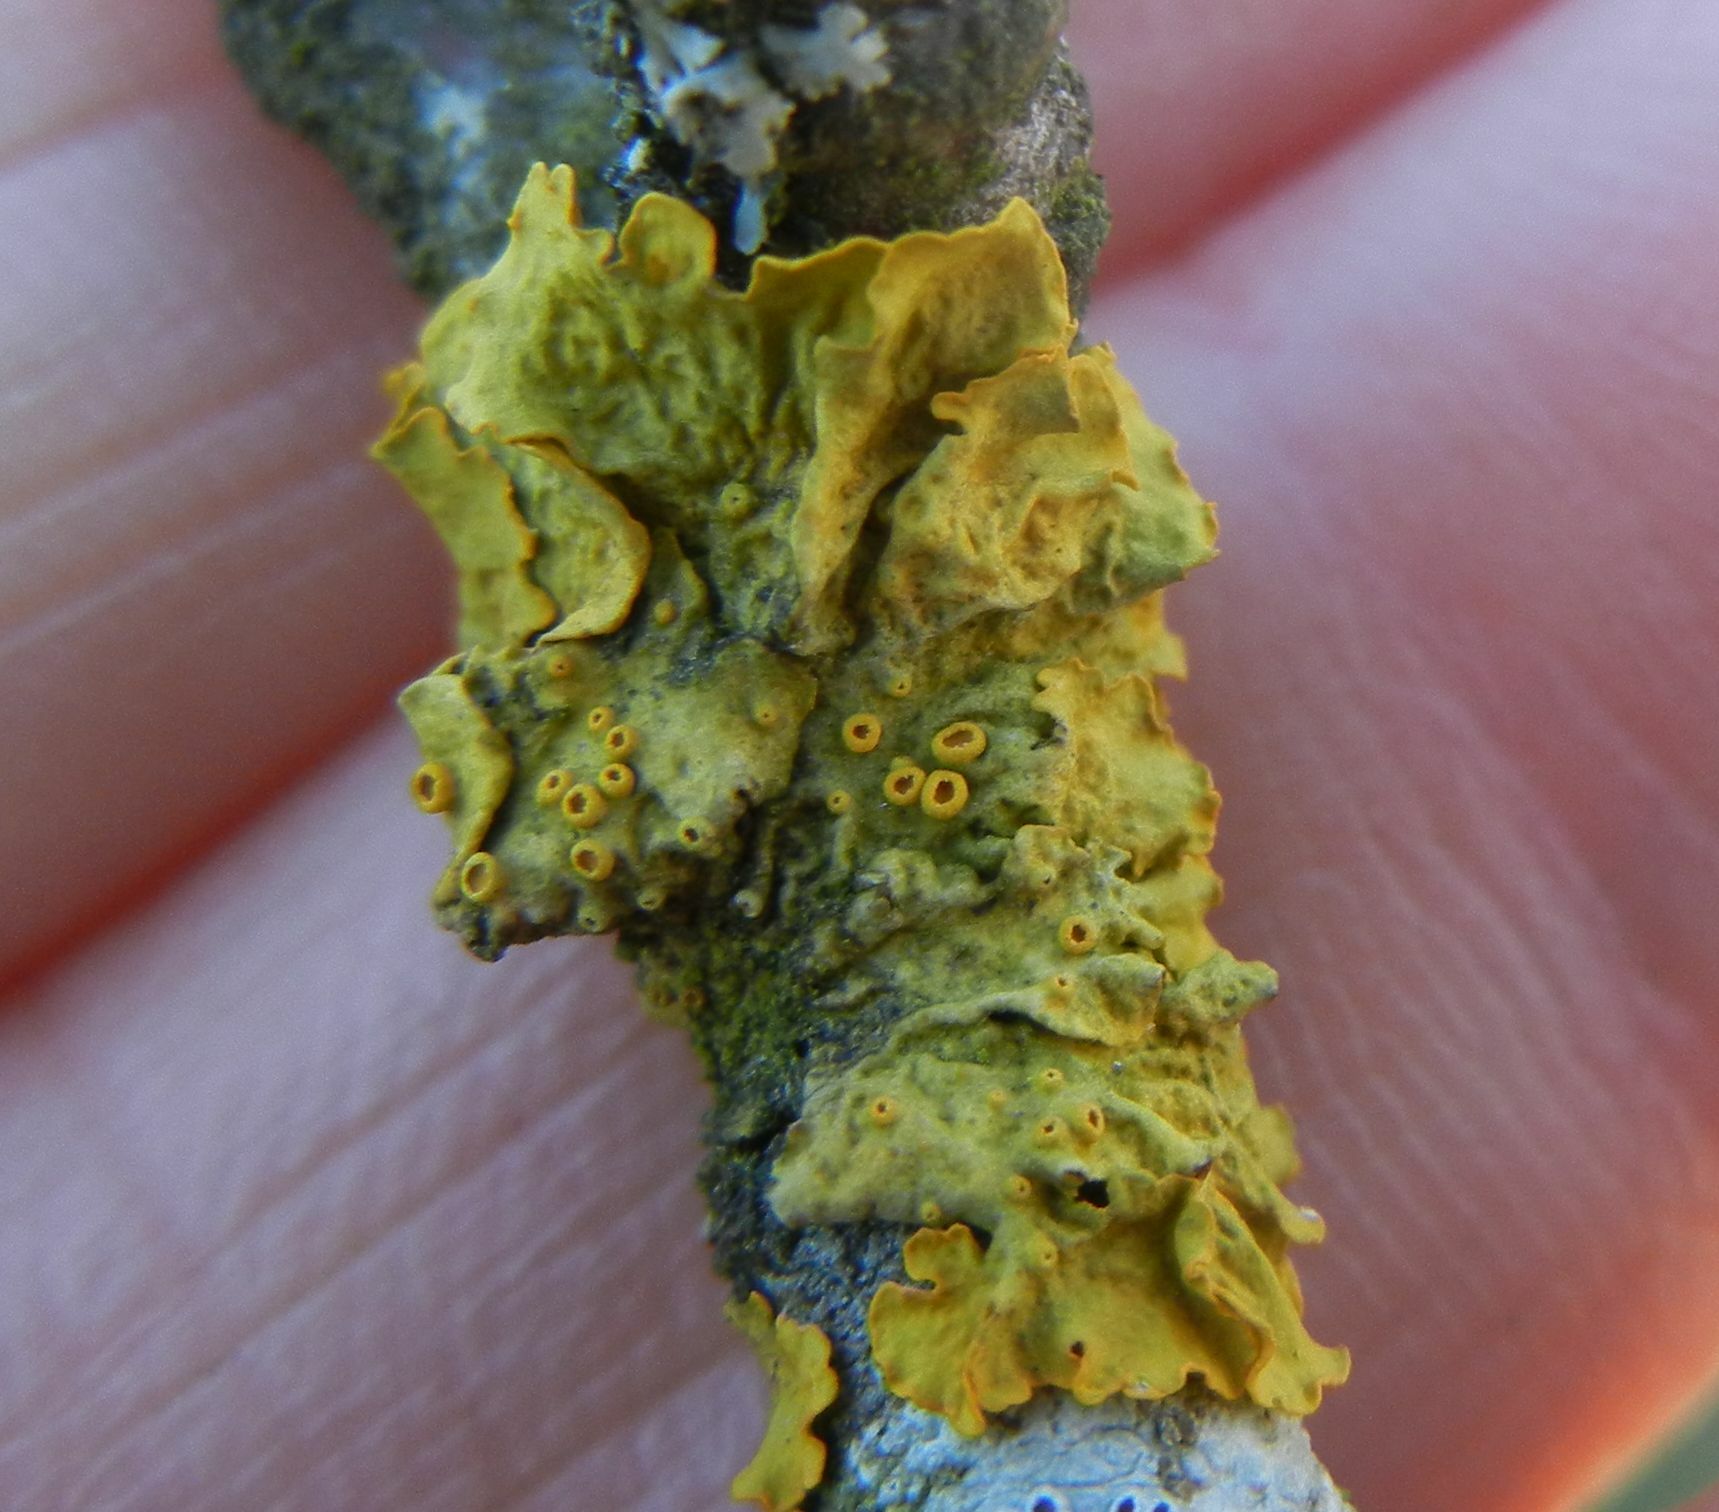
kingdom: Fungi
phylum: Ascomycota
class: Lecanoromycetes
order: Teloschistales
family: Teloschistaceae
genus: Xanthoria
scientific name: Xanthoria parietina
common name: Common orange lichen
